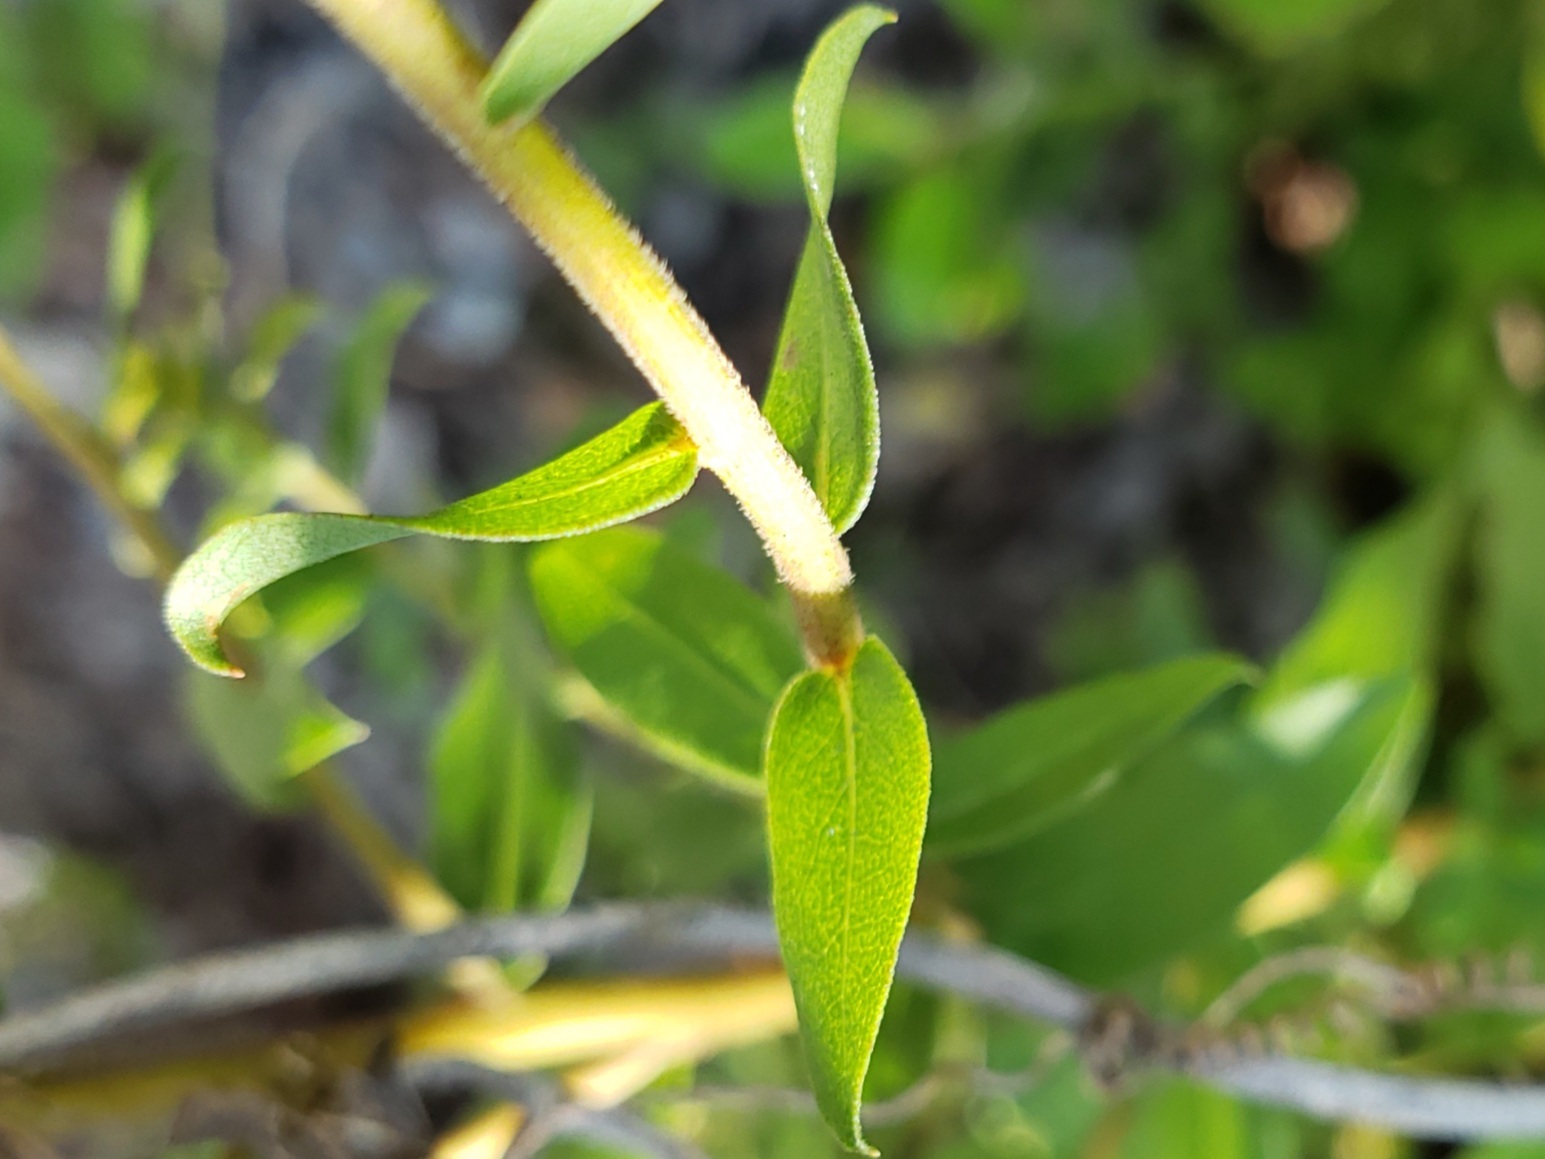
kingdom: Plantae
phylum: Tracheophyta
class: Magnoliopsida
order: Asterales
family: Asteraceae
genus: Solidago
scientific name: Solidago odora
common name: Anise-scented goldenrod
